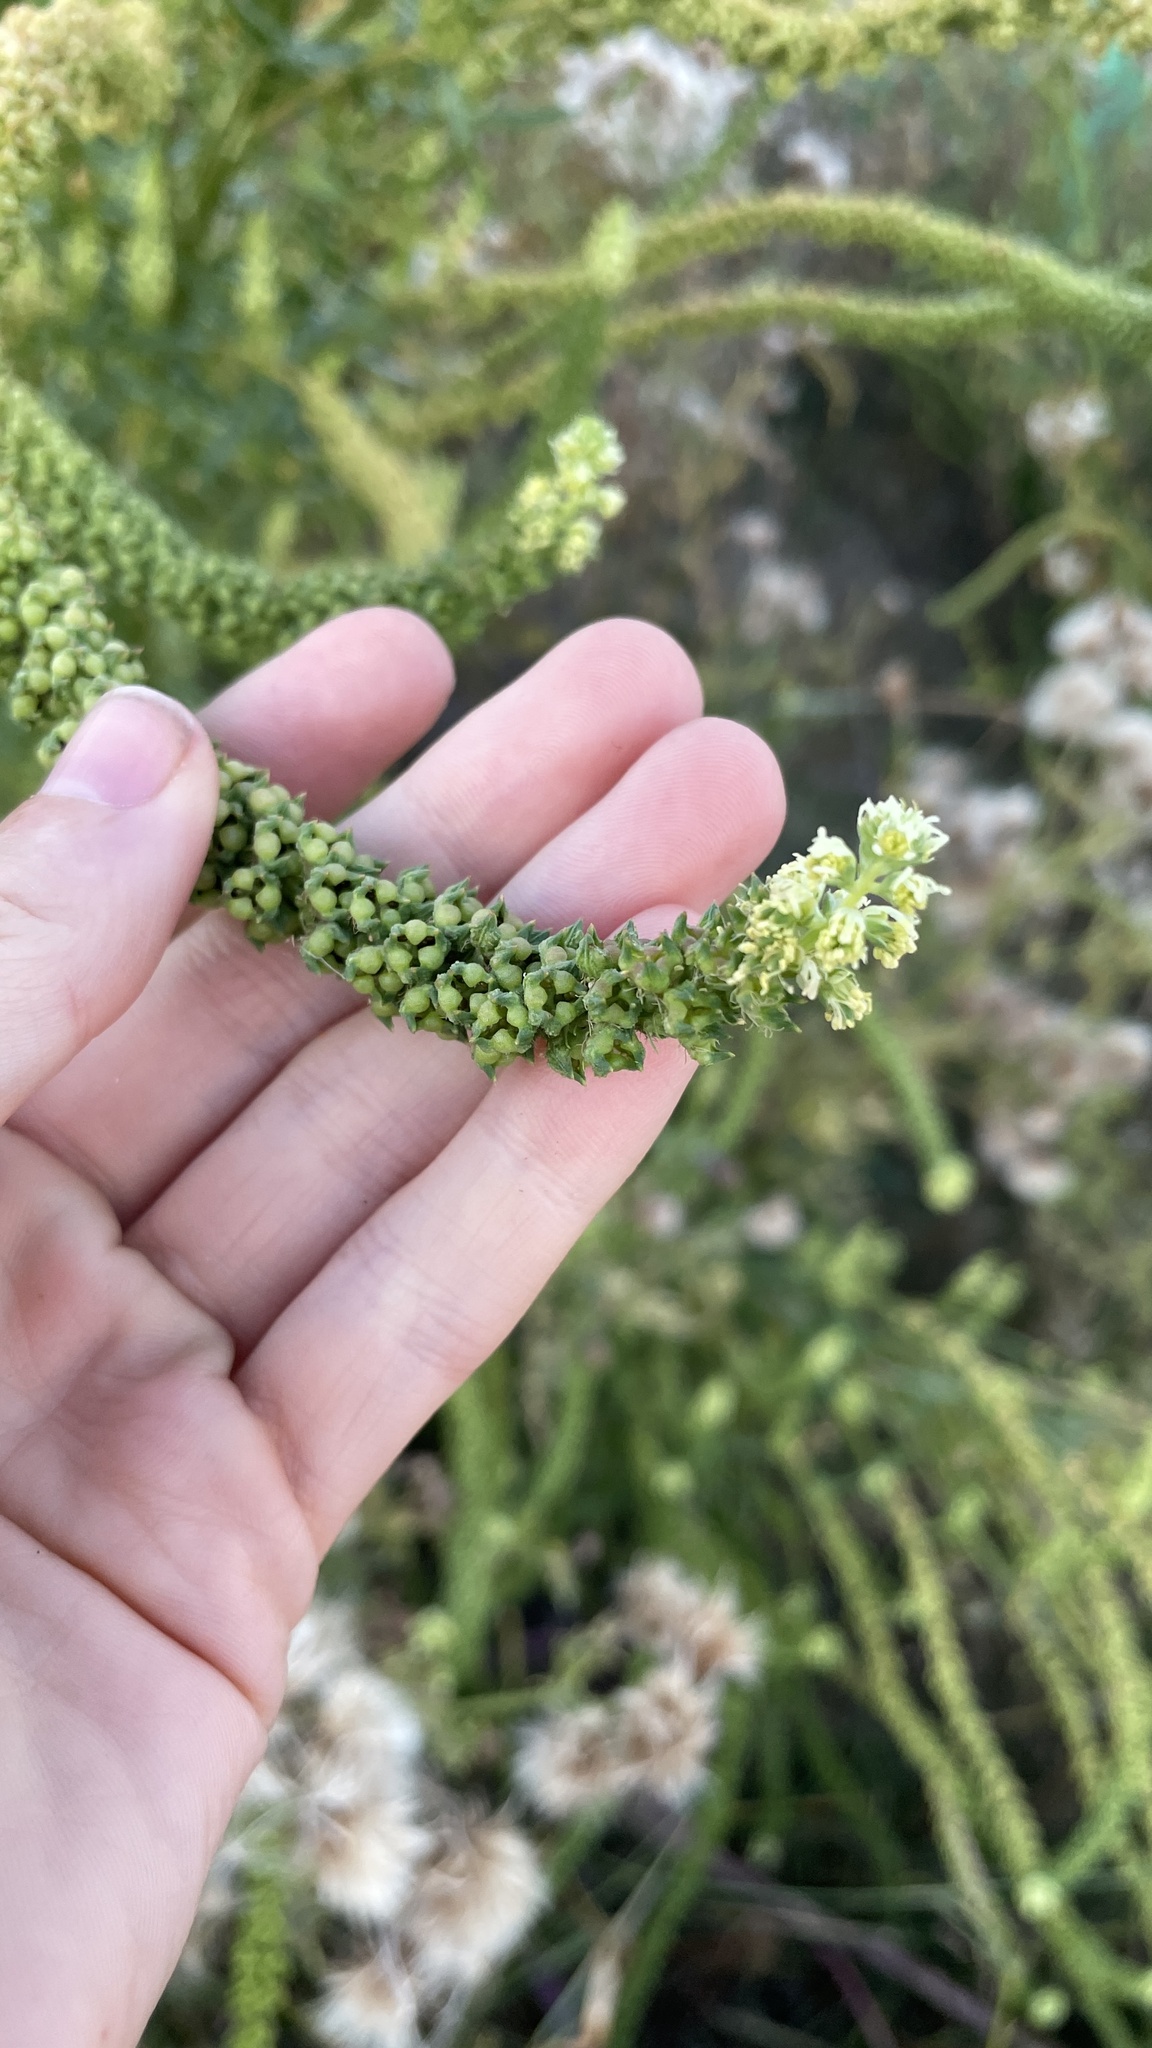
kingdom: Plantae
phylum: Tracheophyta
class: Magnoliopsida
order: Brassicales
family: Resedaceae
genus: Reseda
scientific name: Reseda luteola
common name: Weld
